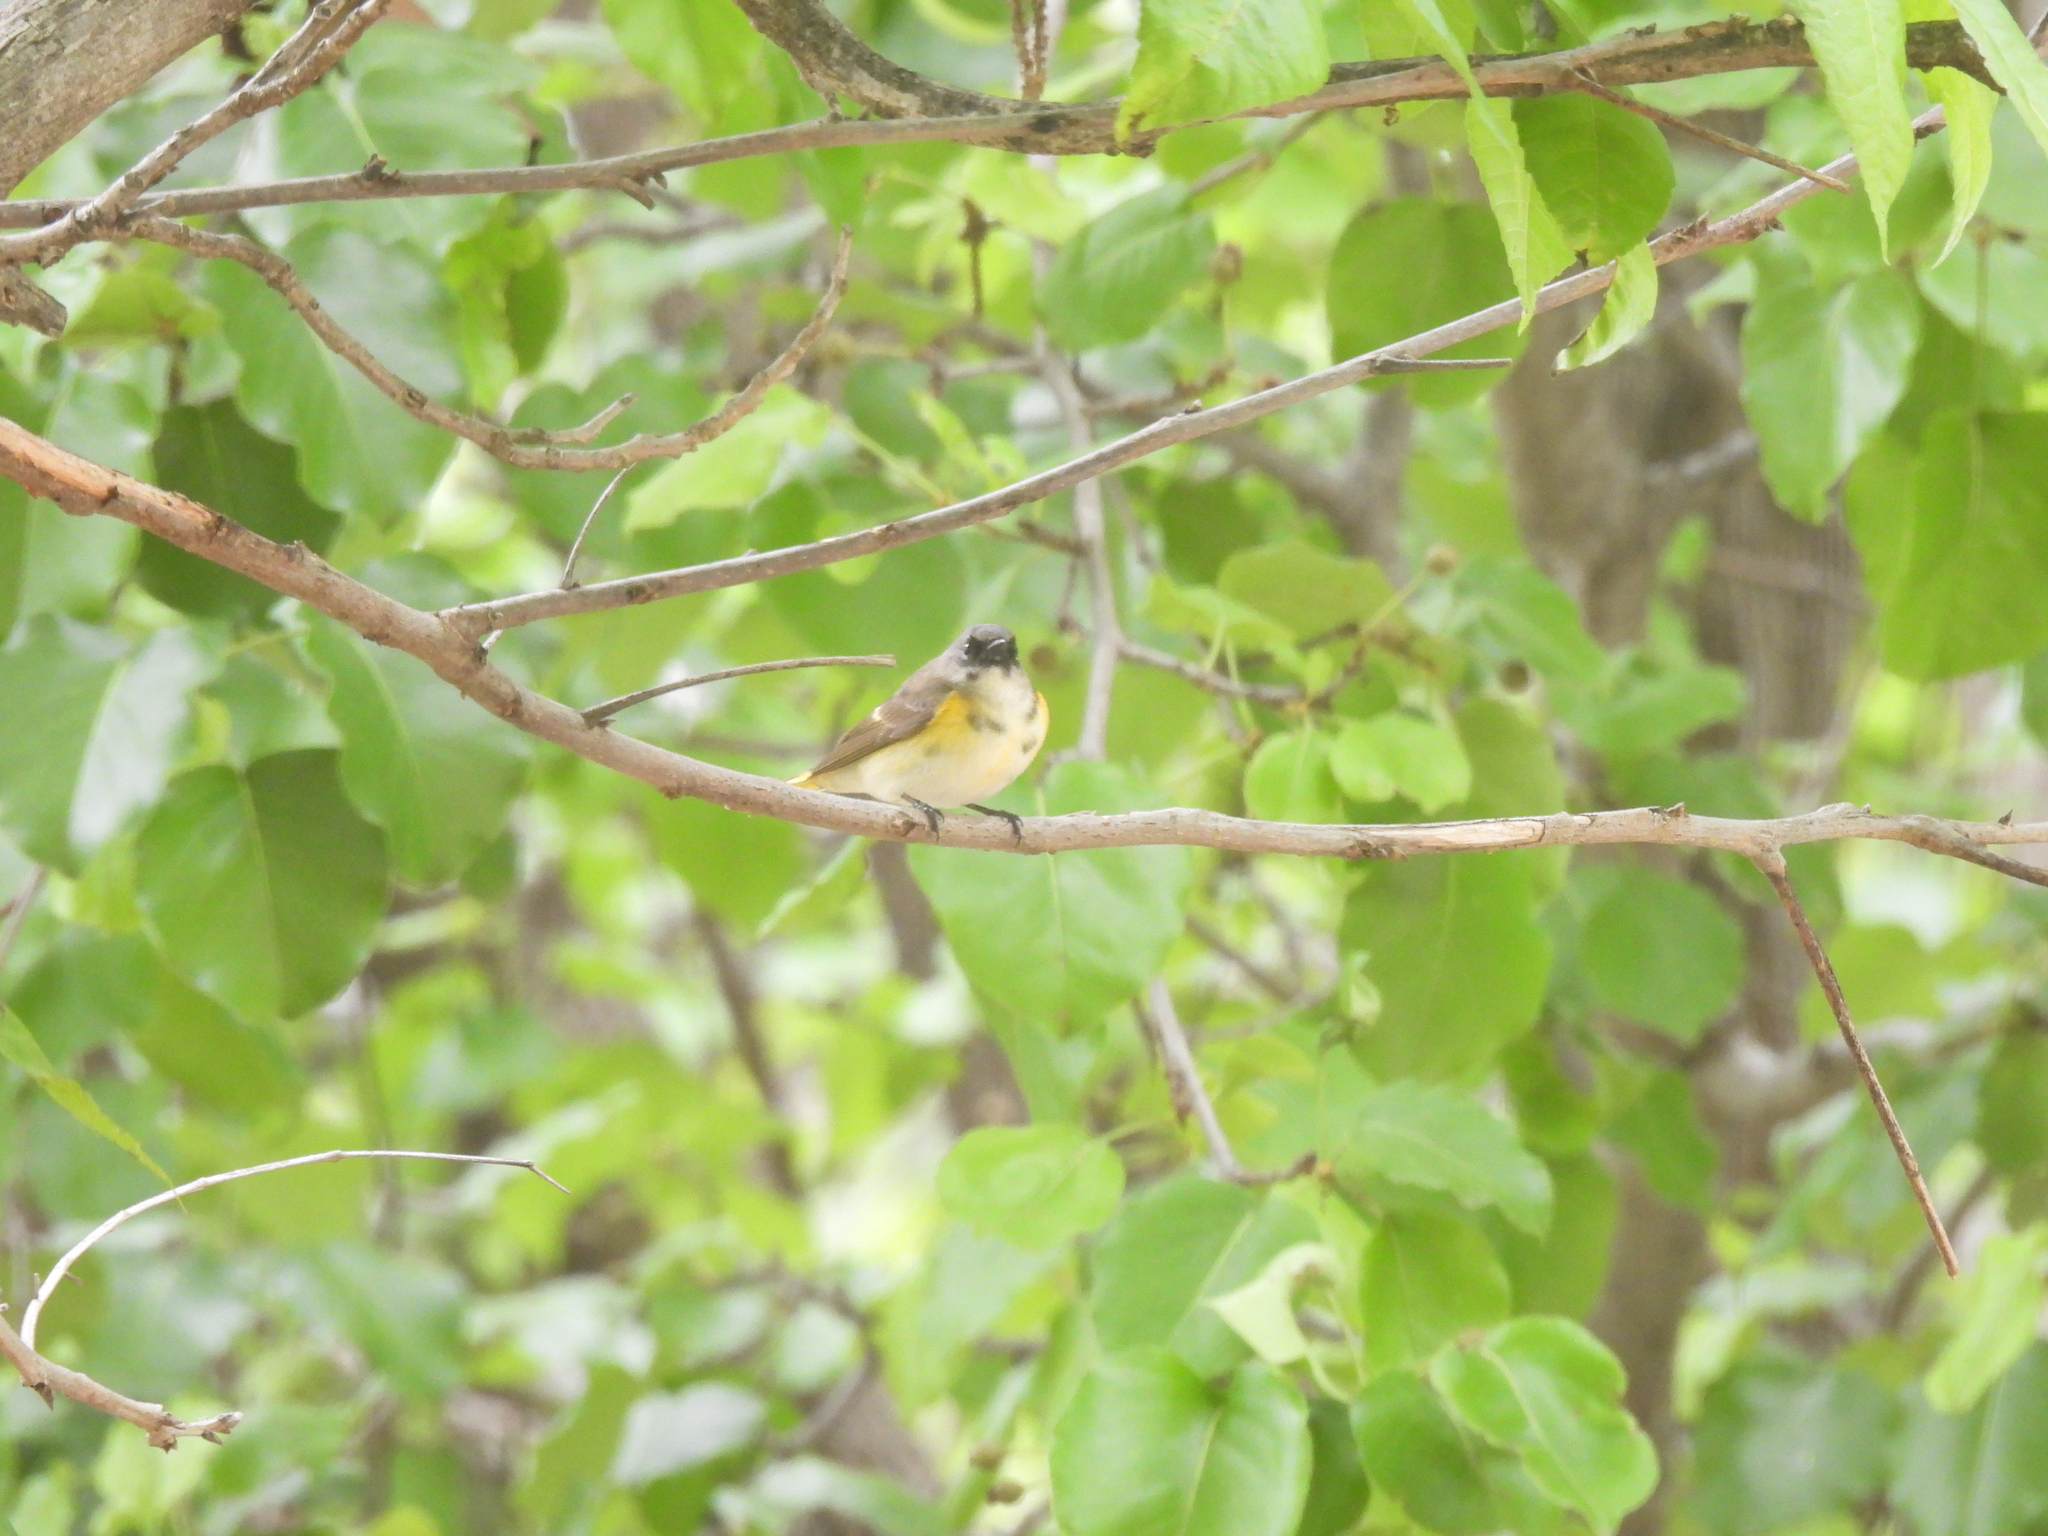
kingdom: Animalia
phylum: Chordata
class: Aves
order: Passeriformes
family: Parulidae
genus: Setophaga
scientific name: Setophaga ruticilla
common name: American redstart
